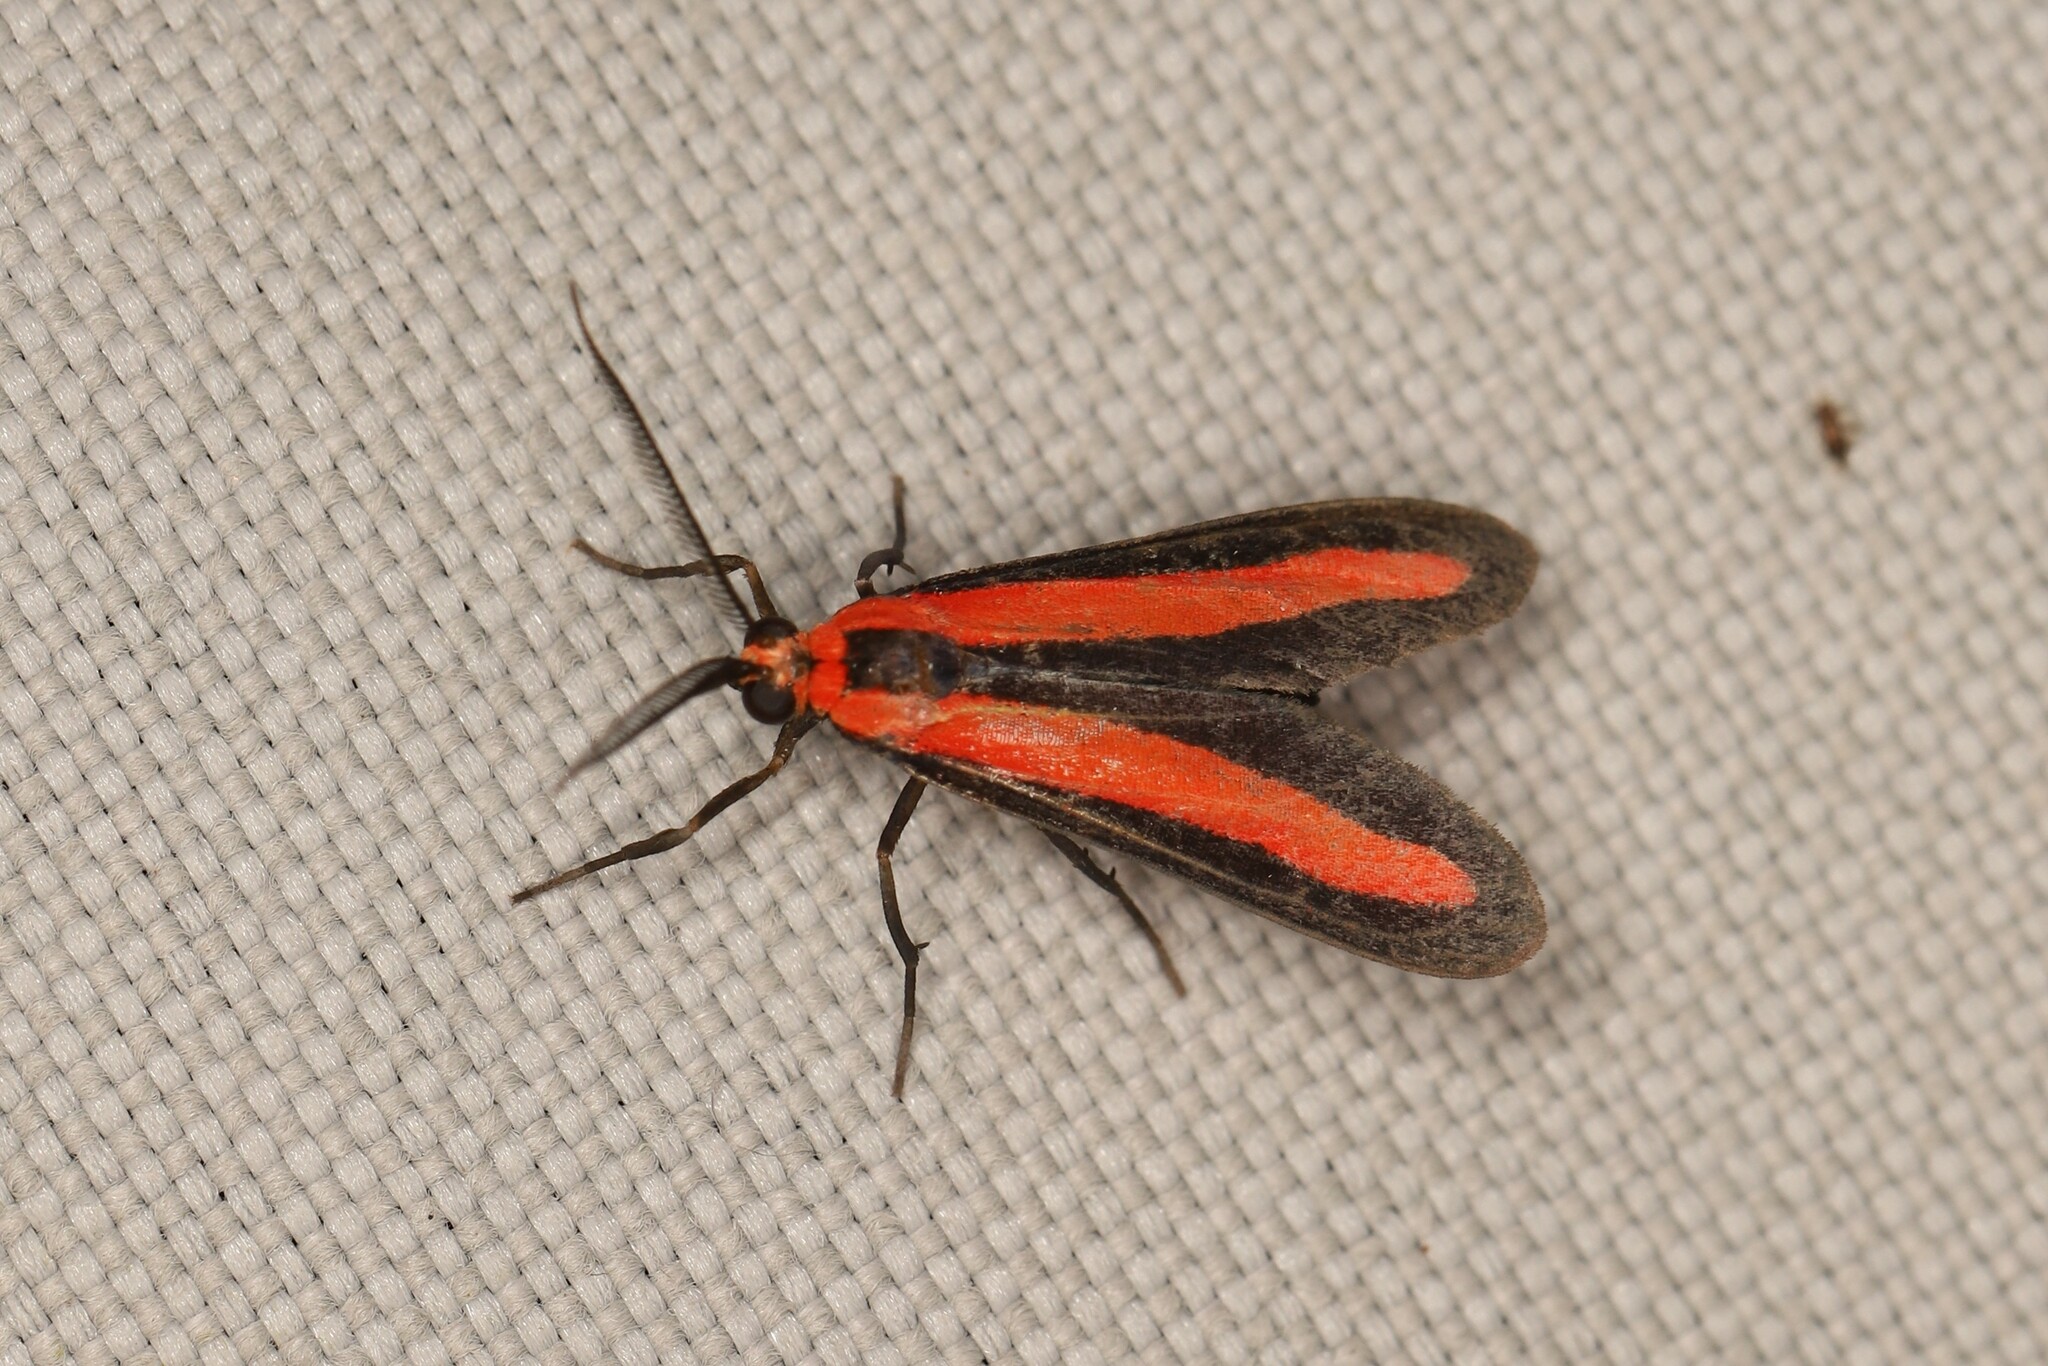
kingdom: Animalia
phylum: Arthropoda
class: Insecta
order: Lepidoptera
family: Erebidae
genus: Tipulodes
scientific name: Tipulodes rubriceps
